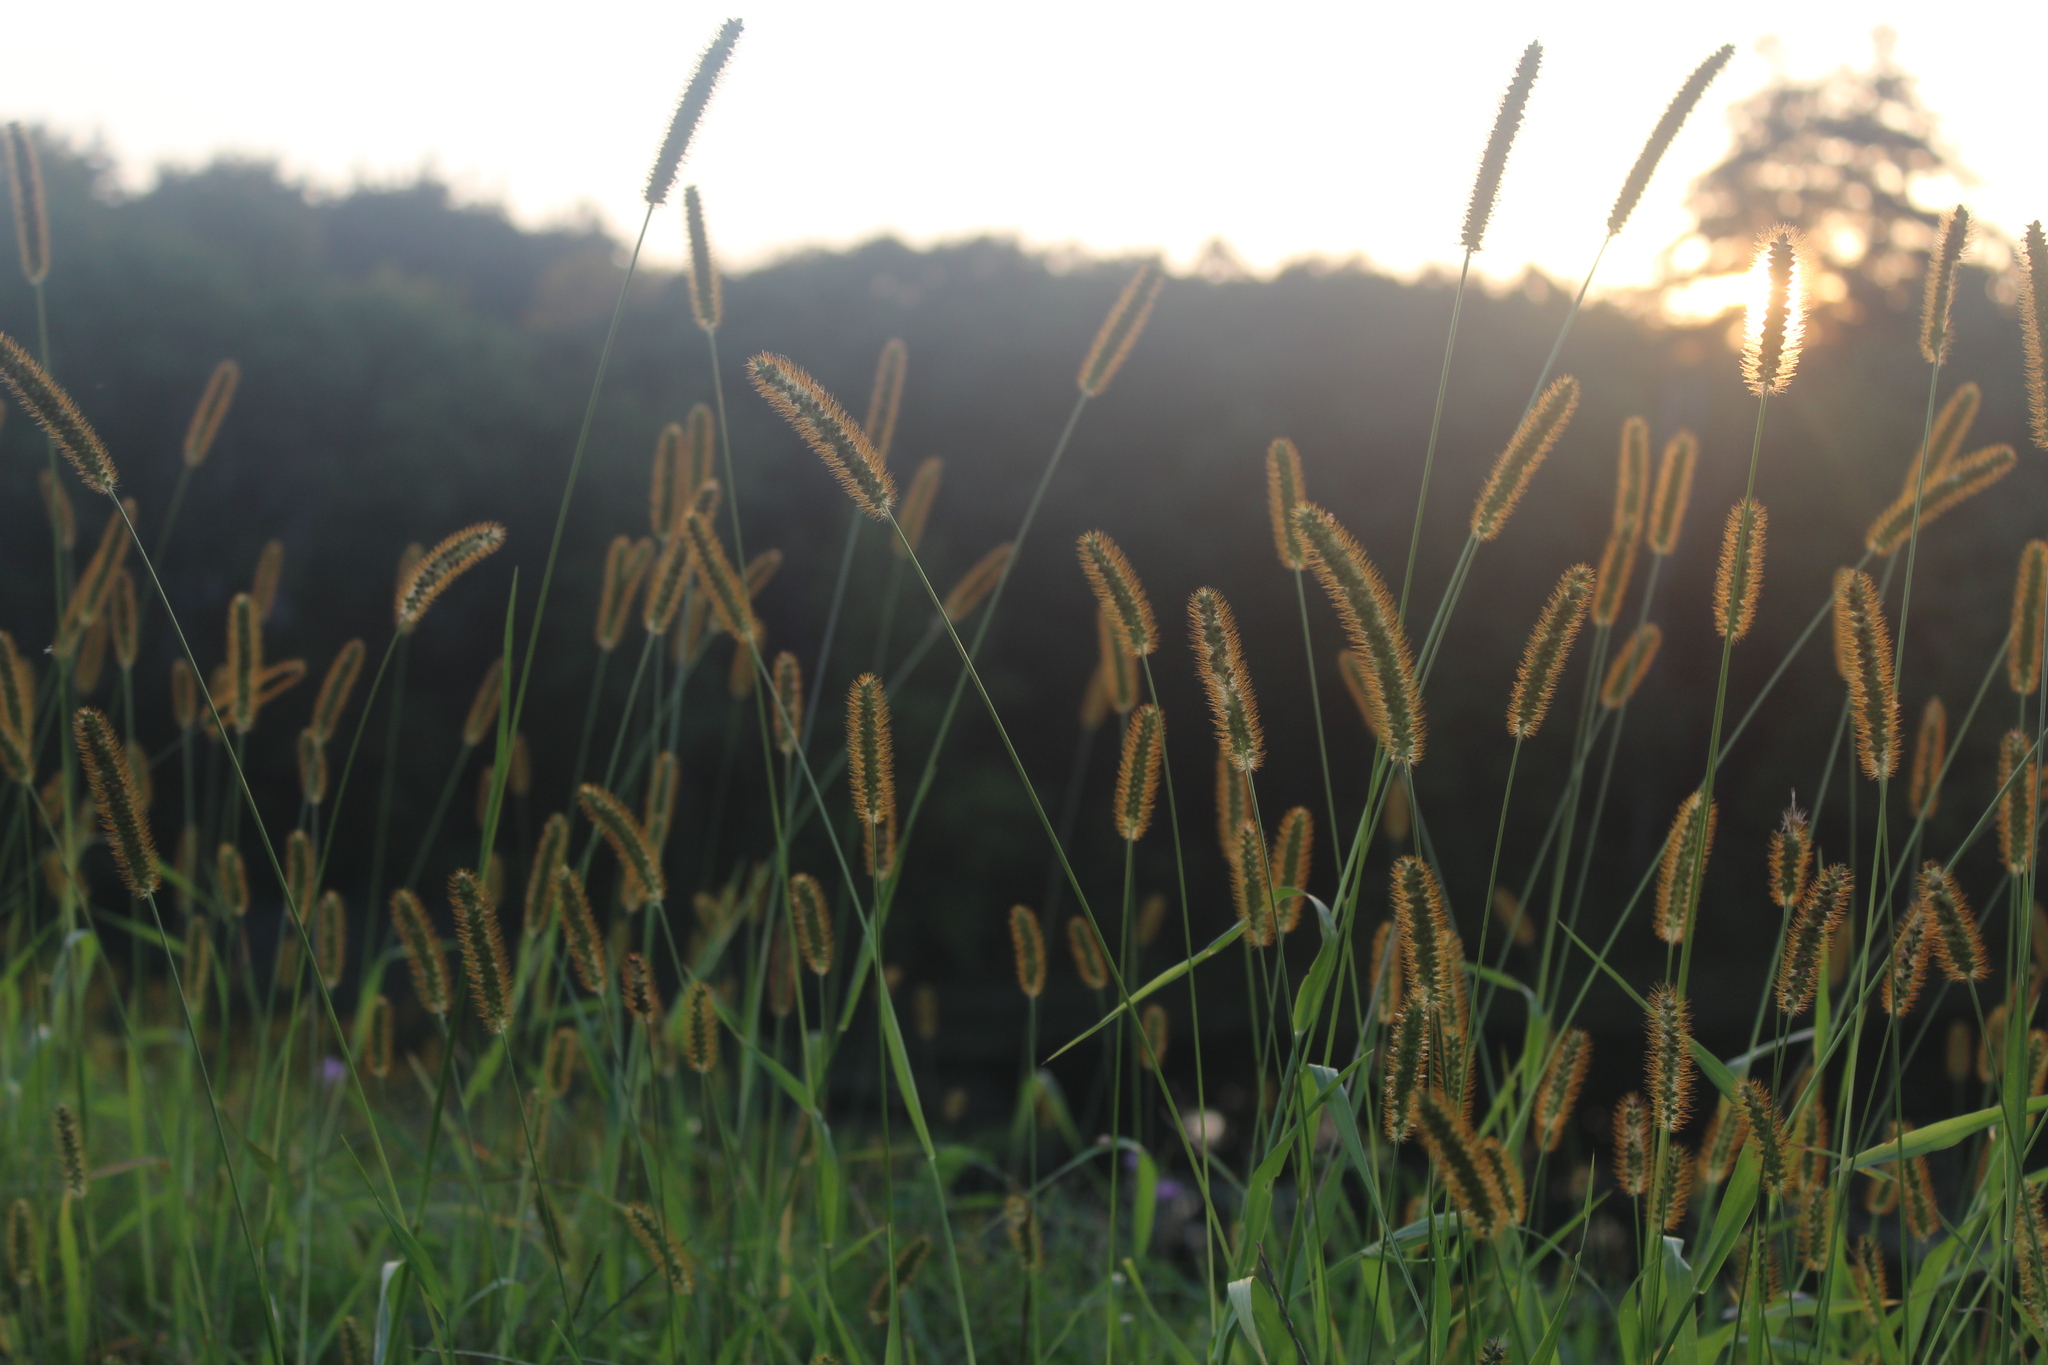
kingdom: Plantae
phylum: Tracheophyta
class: Liliopsida
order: Poales
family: Poaceae
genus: Setaria
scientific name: Setaria pumila
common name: Yellow bristle-grass
